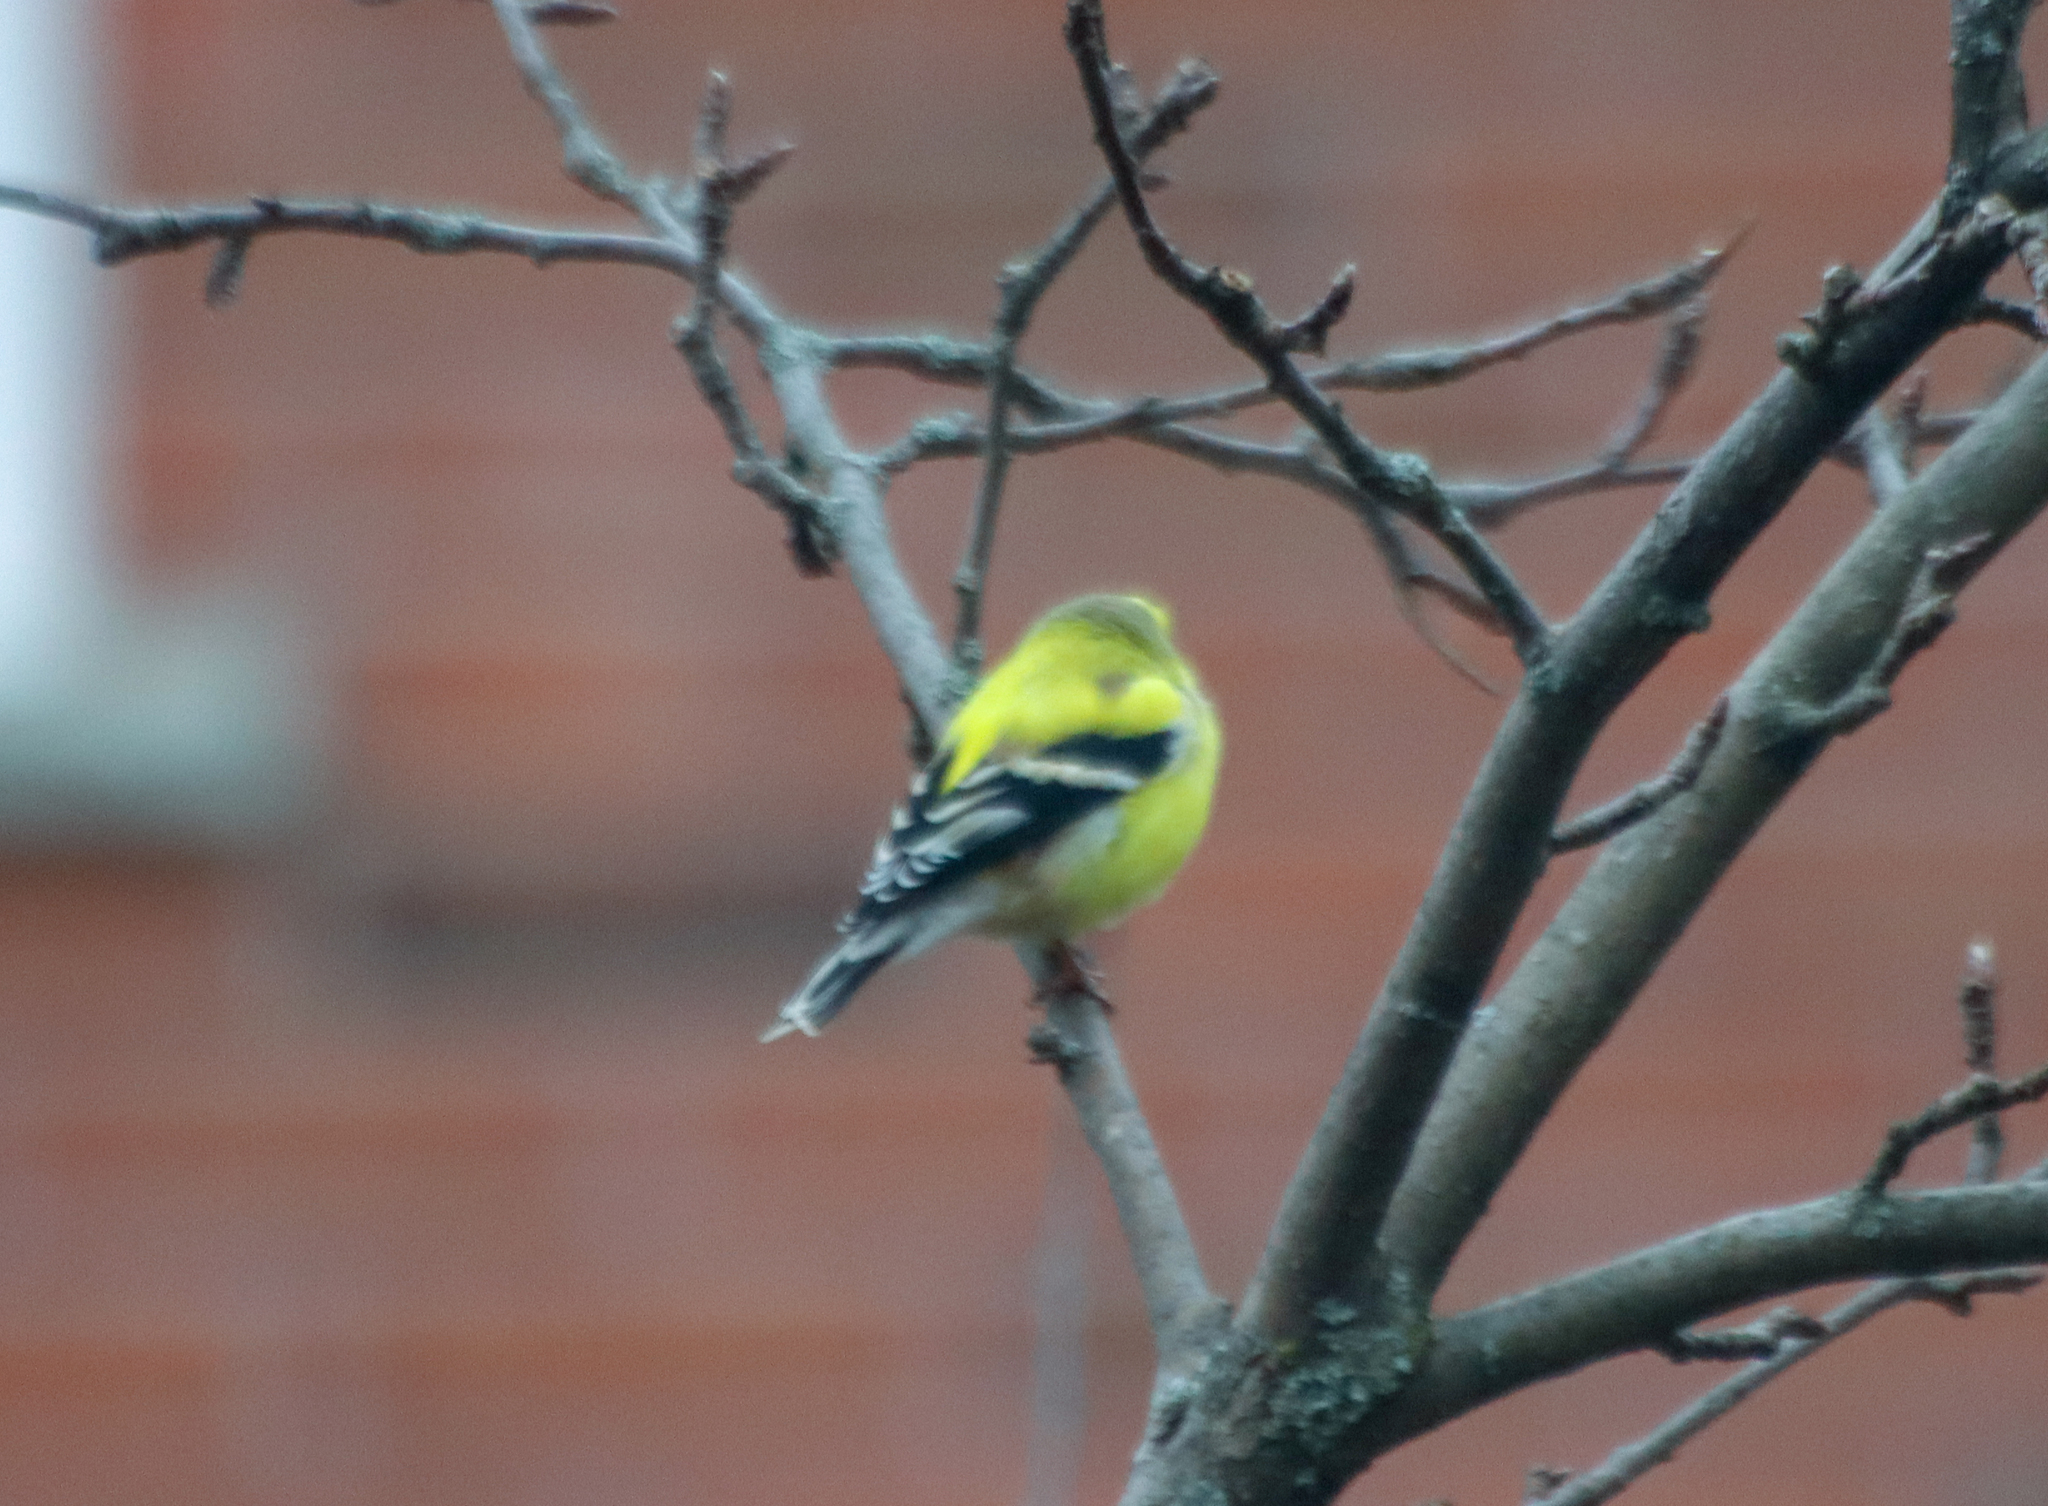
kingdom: Animalia
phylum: Chordata
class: Aves
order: Passeriformes
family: Fringillidae
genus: Spinus
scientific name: Spinus tristis
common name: American goldfinch
